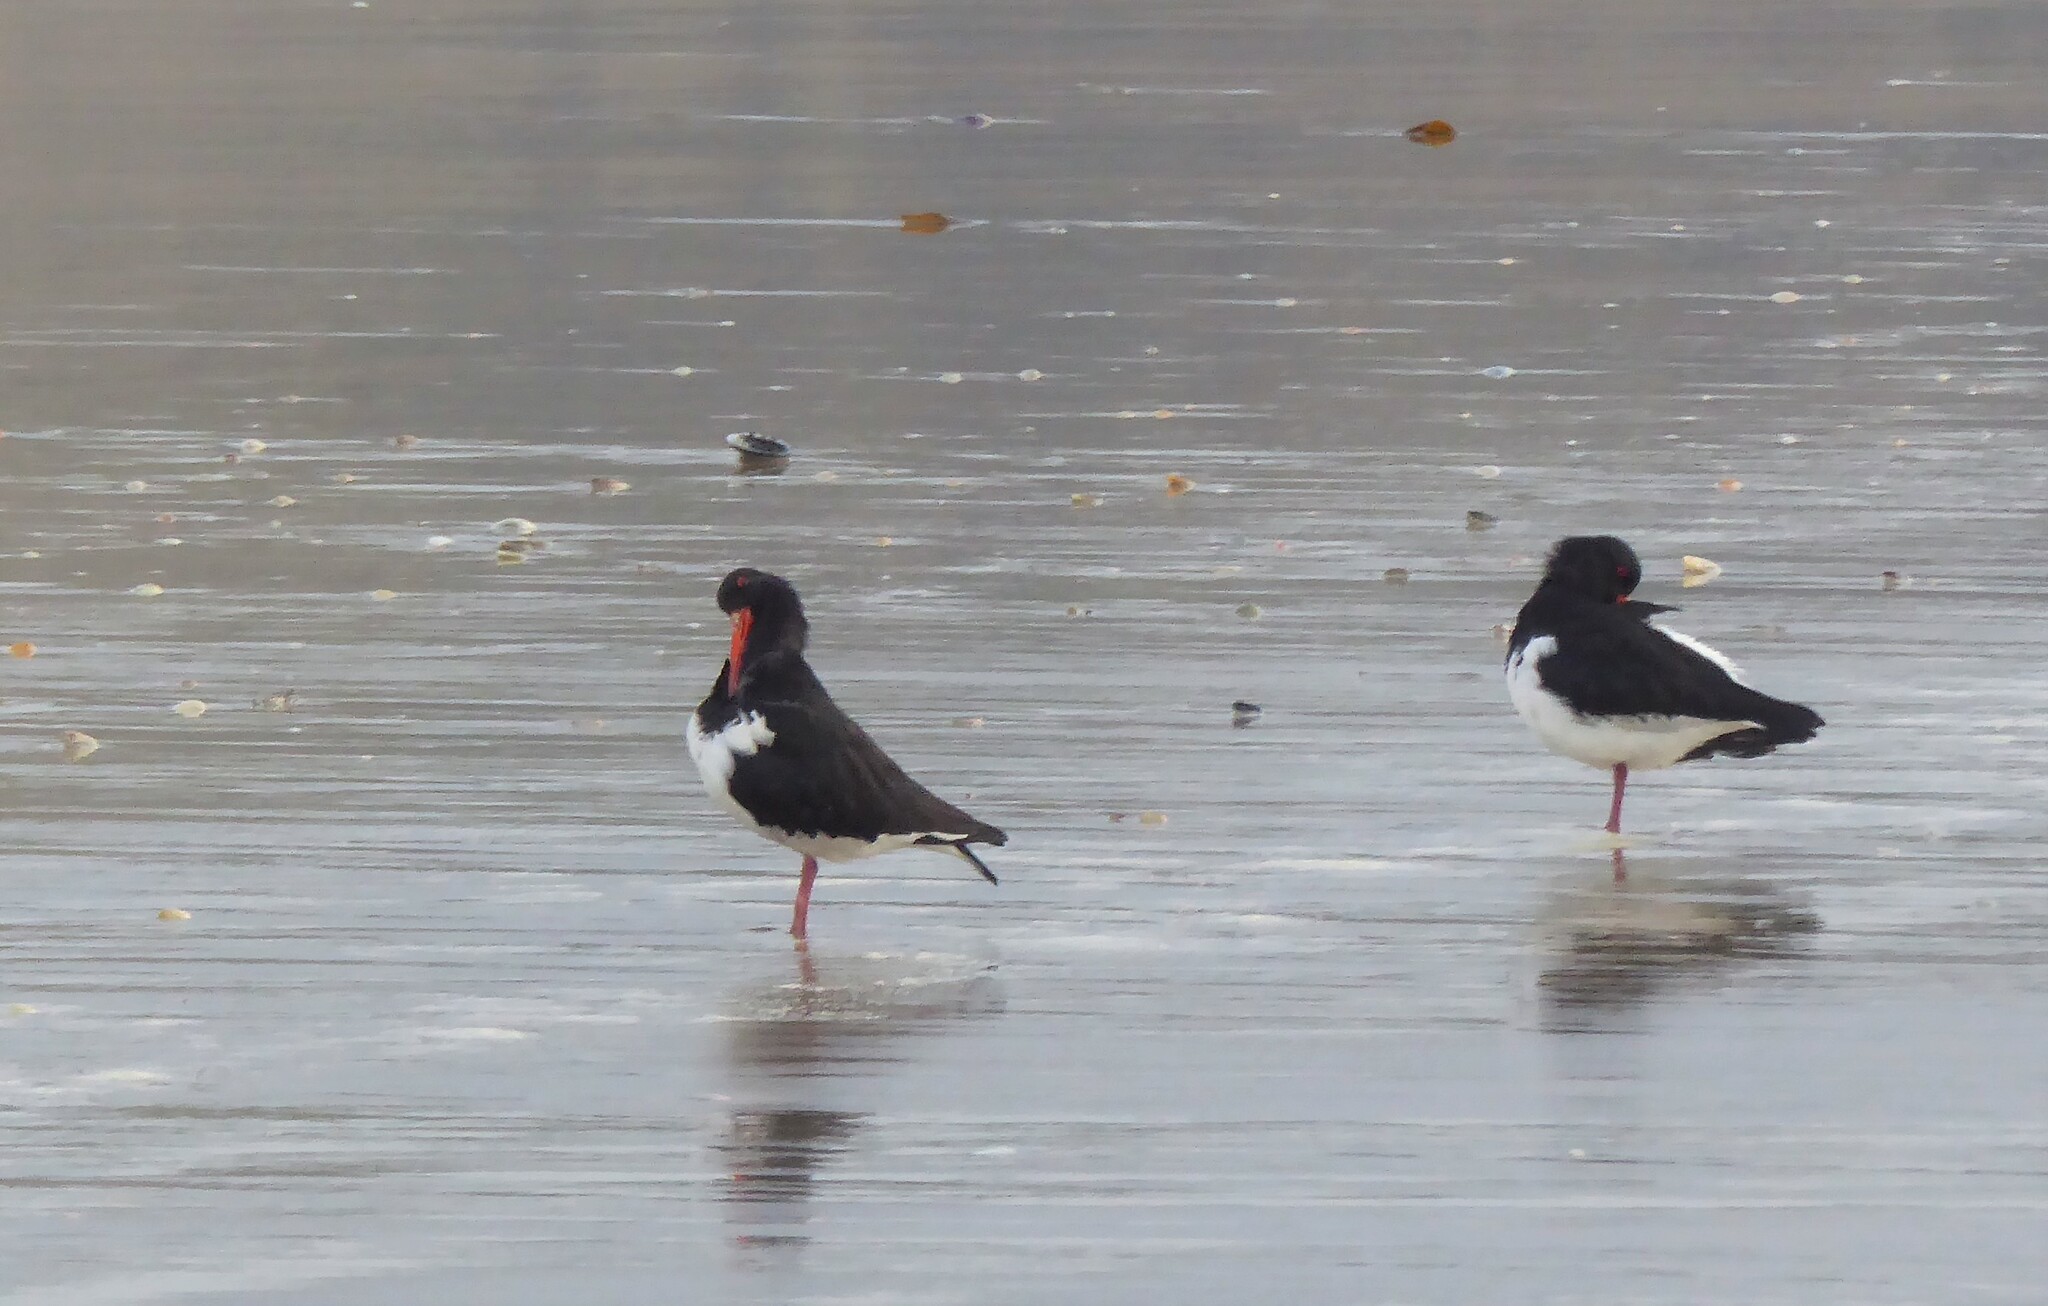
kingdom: Animalia
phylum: Chordata
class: Aves
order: Charadriiformes
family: Haematopodidae
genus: Haematopus
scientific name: Haematopus finschi
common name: South island oystercatcher
